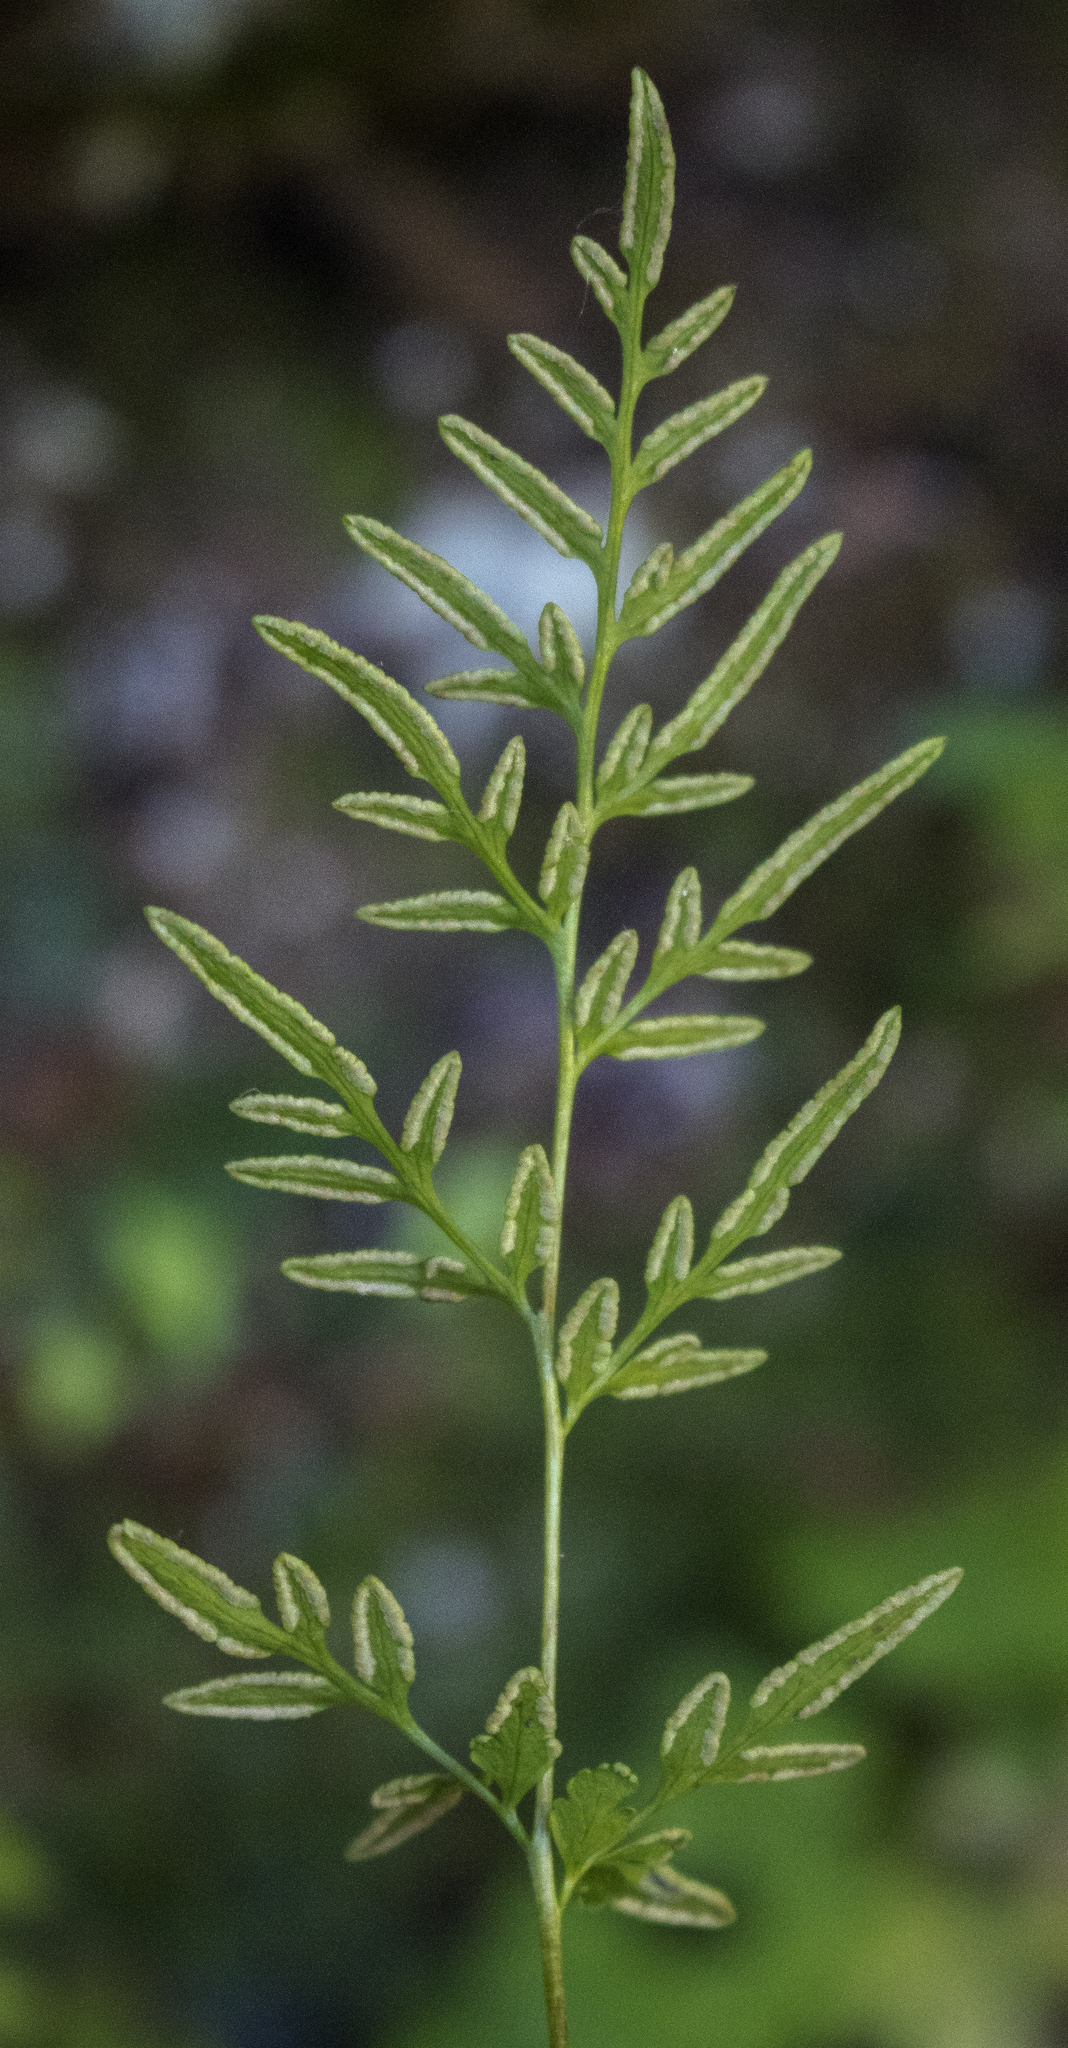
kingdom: Plantae
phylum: Tracheophyta
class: Polypodiopsida
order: Polypodiales
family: Pteridaceae
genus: Cryptogramma
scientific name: Cryptogramma stelleri
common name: Cliff-brake
